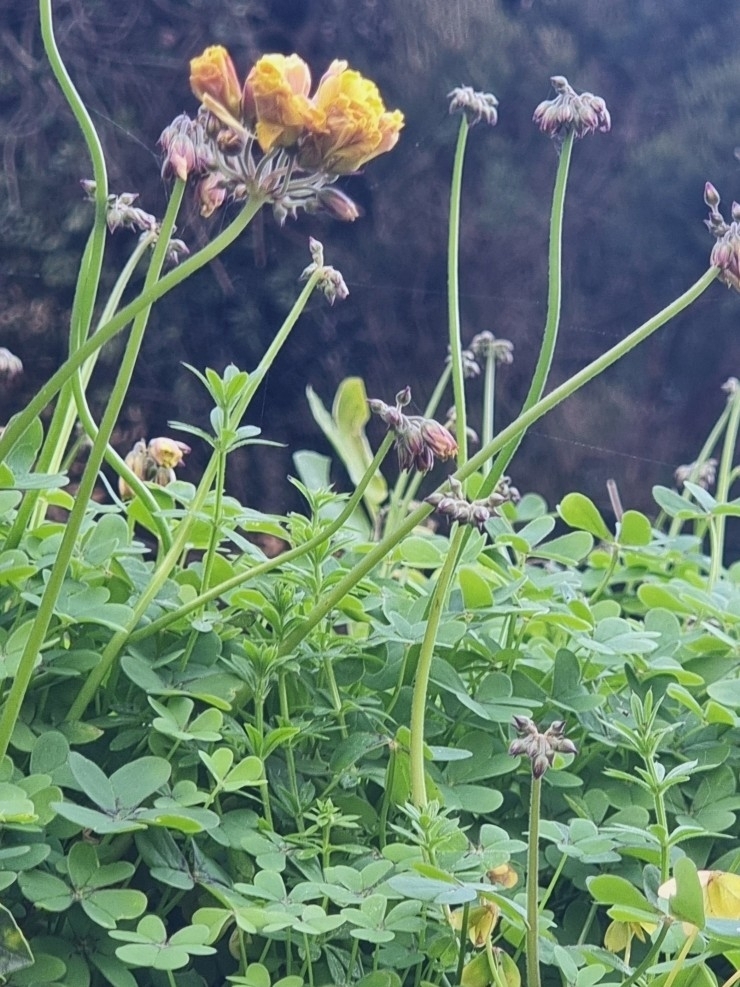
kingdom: Plantae
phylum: Tracheophyta
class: Magnoliopsida
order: Oxalidales
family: Oxalidaceae
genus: Oxalis
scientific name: Oxalis pes-caprae
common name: Bermuda-buttercup
